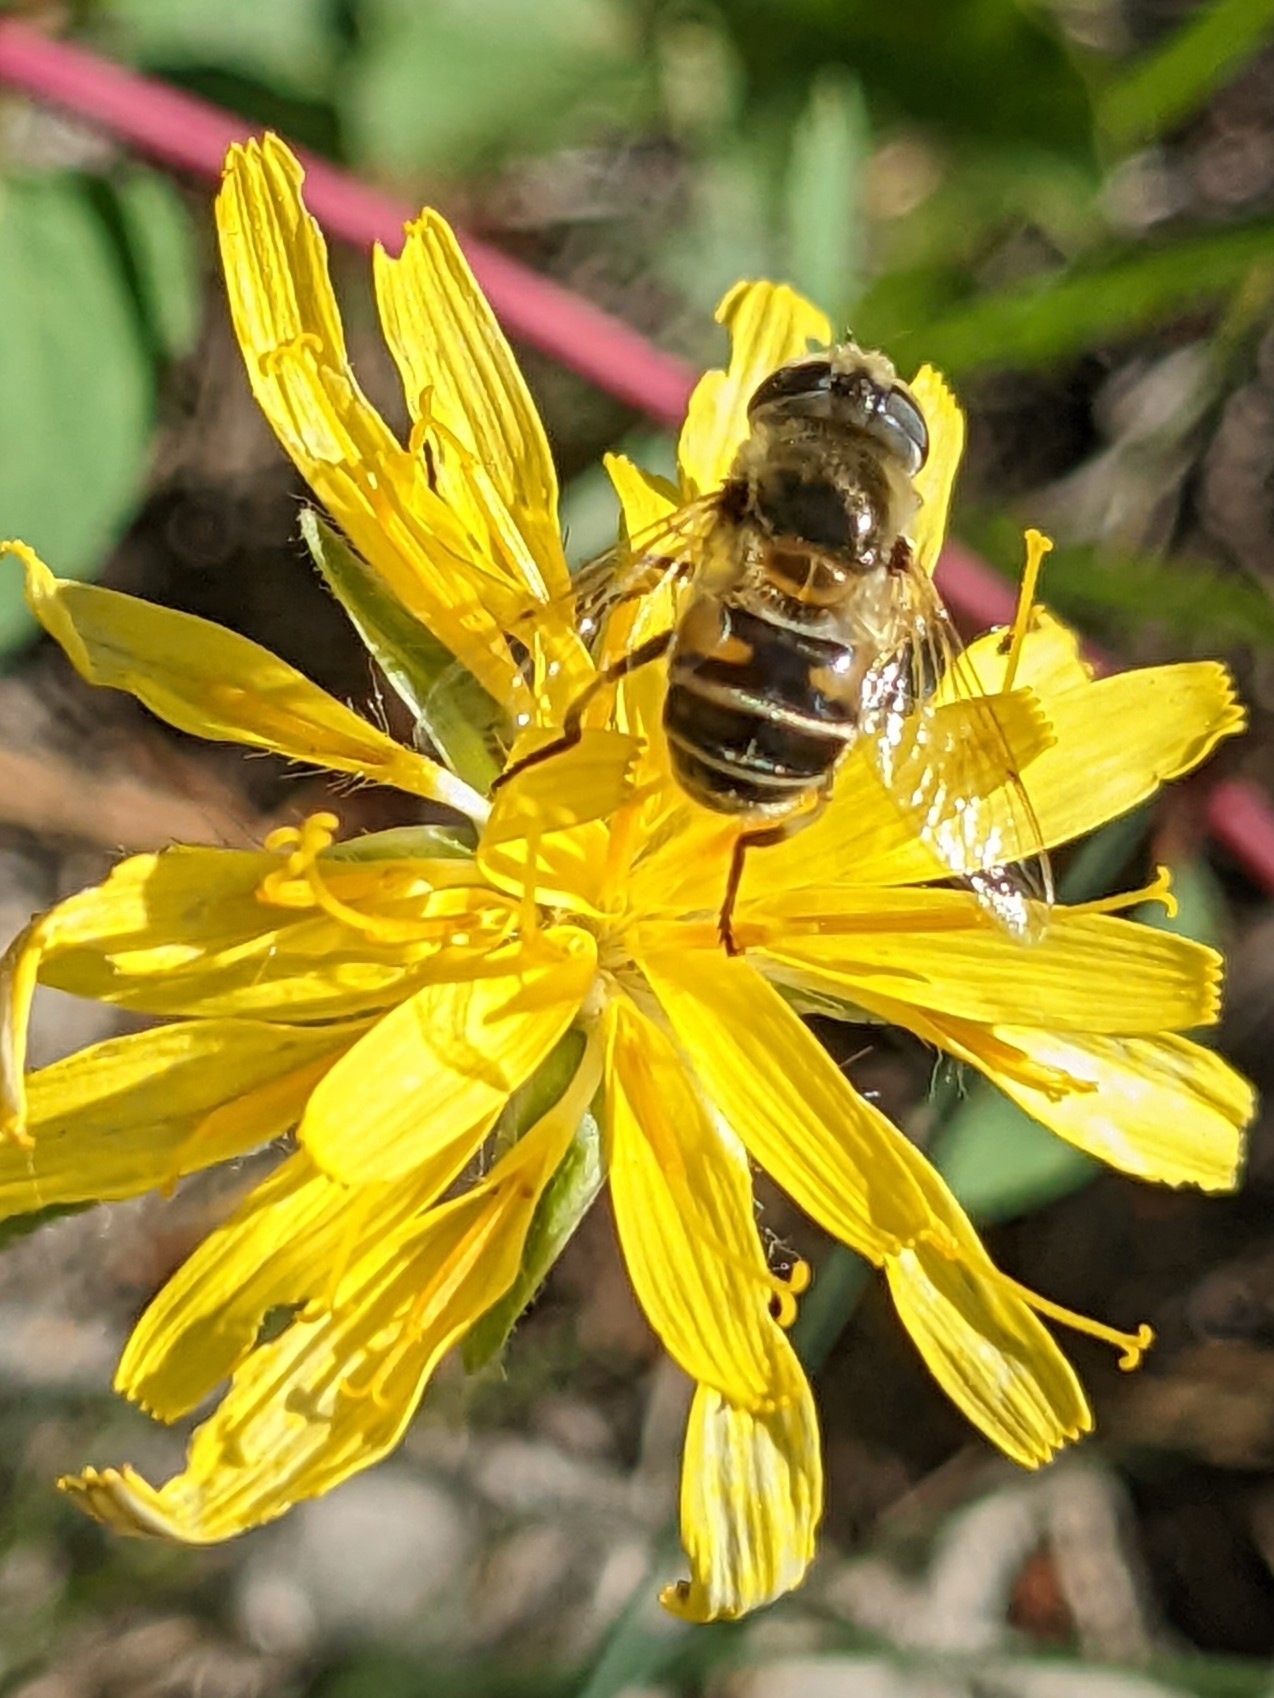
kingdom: Animalia
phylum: Arthropoda
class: Insecta
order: Diptera
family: Syrphidae
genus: Eristalis
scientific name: Eristalis stipator
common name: Yellow-shouldered drone fly
